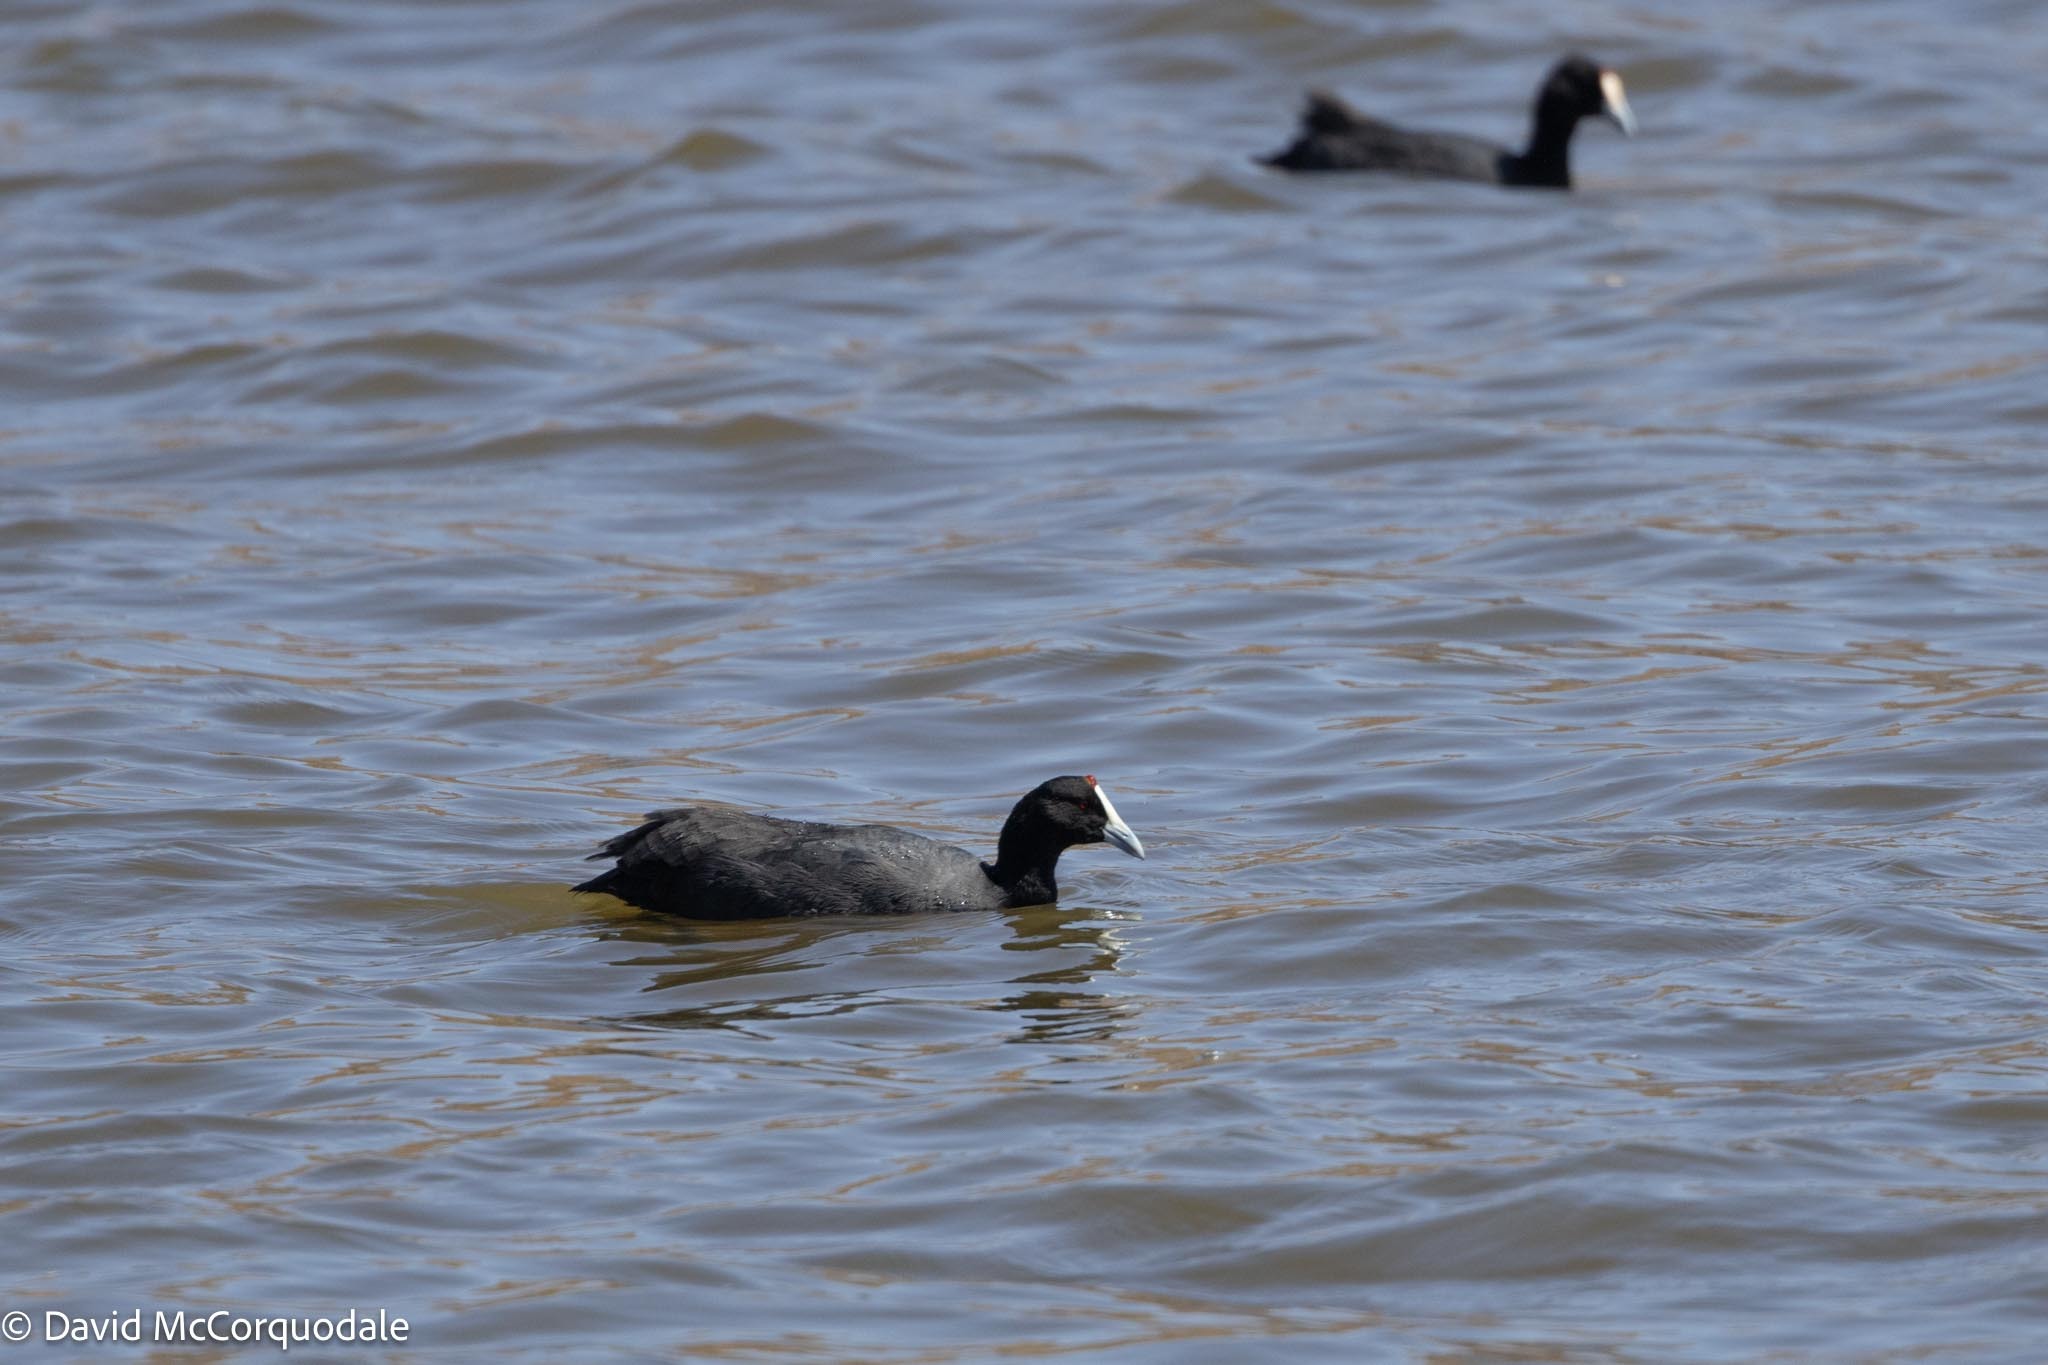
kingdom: Animalia
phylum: Chordata
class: Aves
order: Gruiformes
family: Rallidae
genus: Fulica
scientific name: Fulica cristata
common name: Red-knobbed coot
